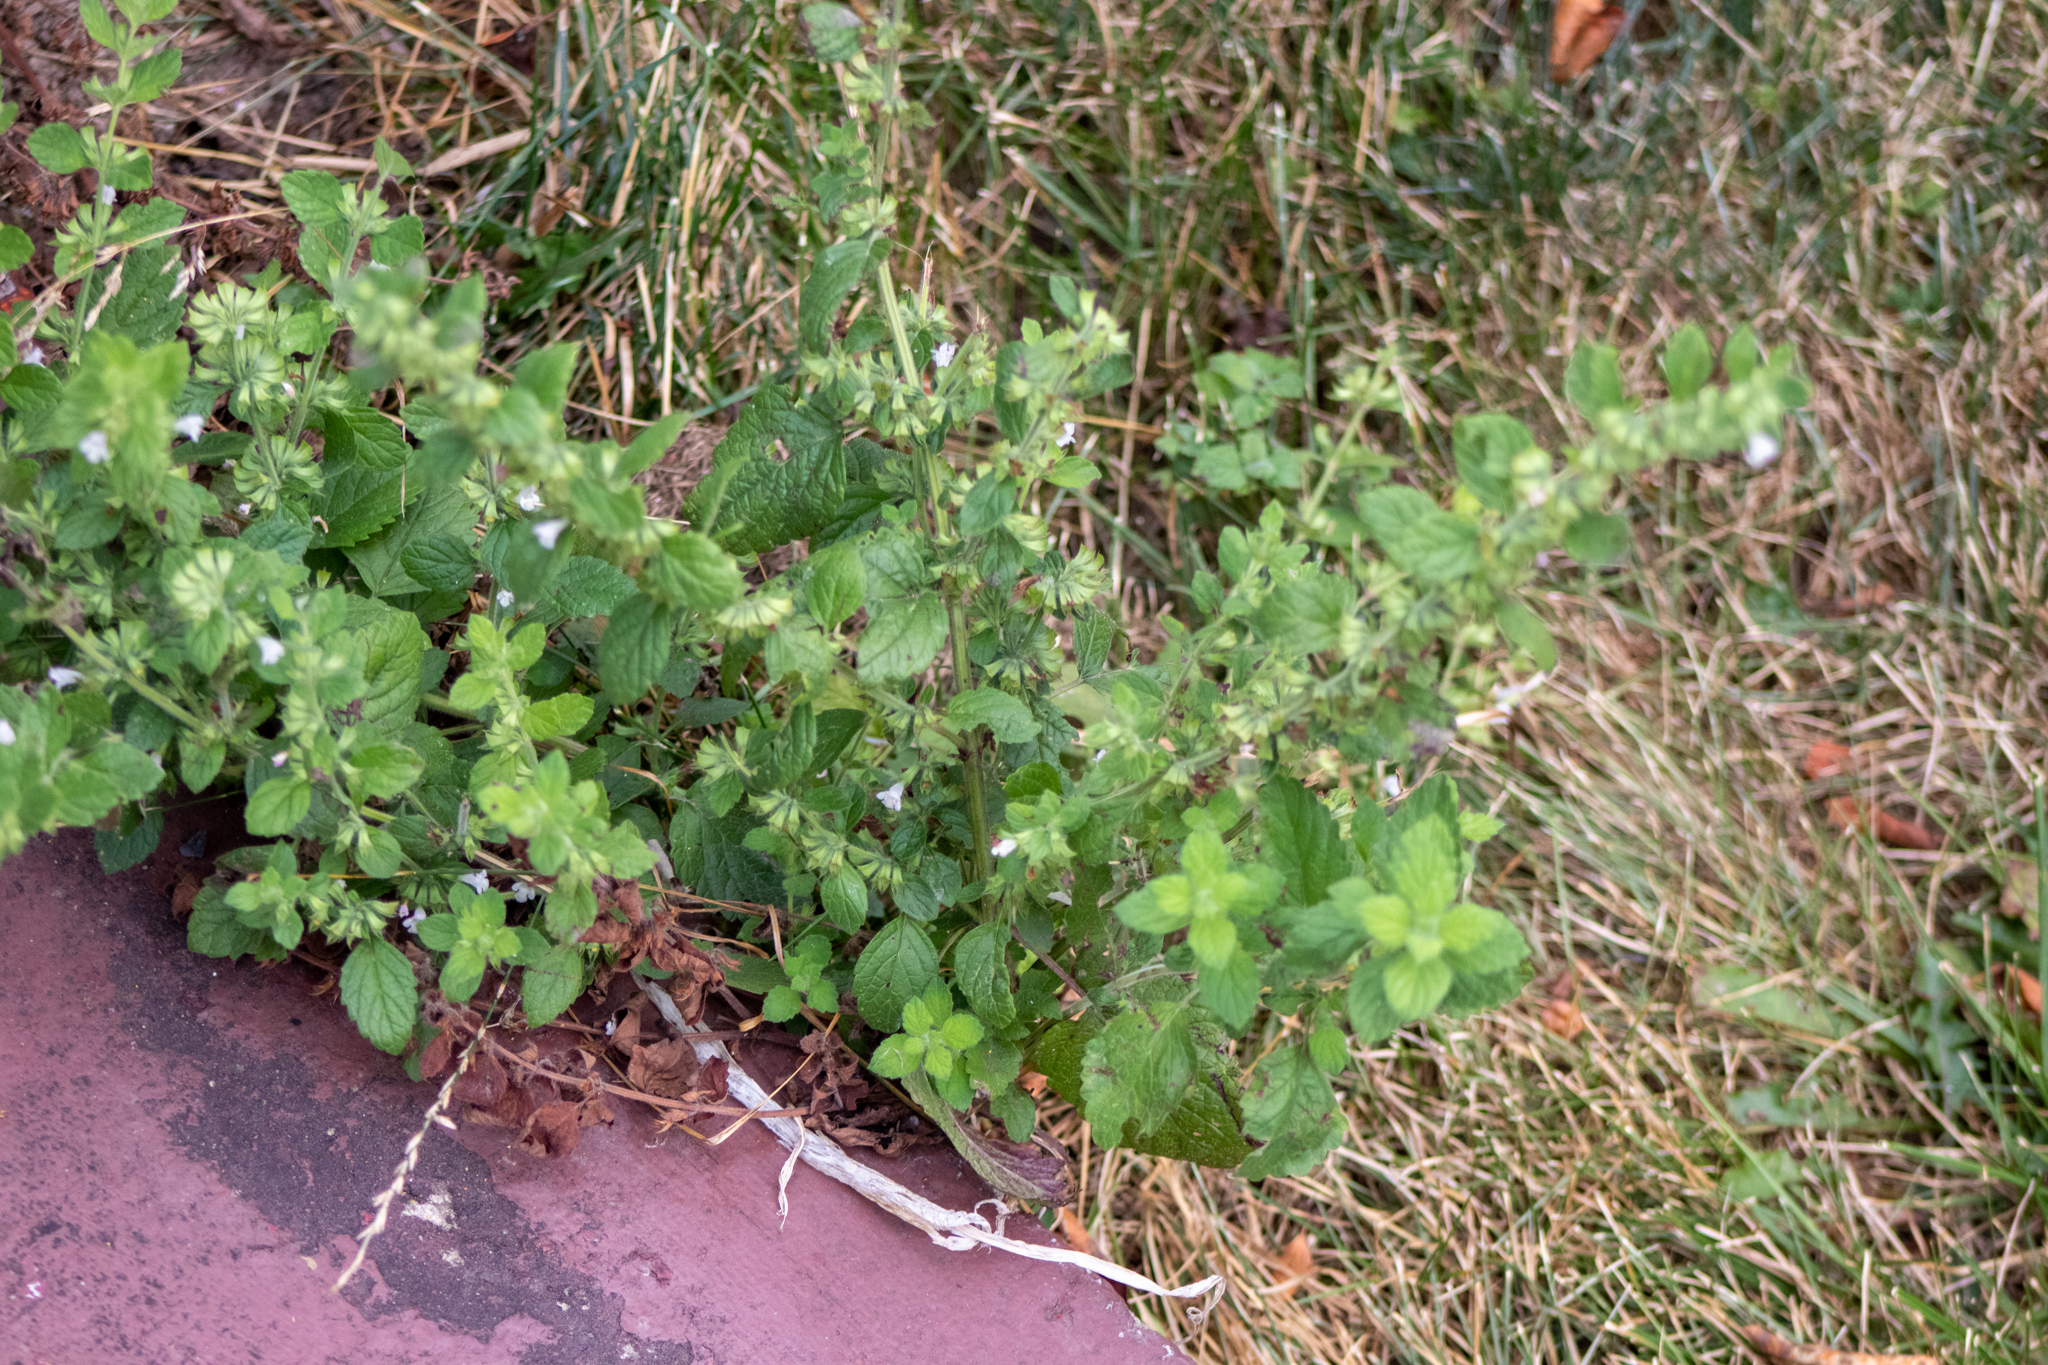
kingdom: Plantae
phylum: Tracheophyta
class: Magnoliopsida
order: Lamiales
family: Lamiaceae
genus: Melissa
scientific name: Melissa officinalis
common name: Balm
